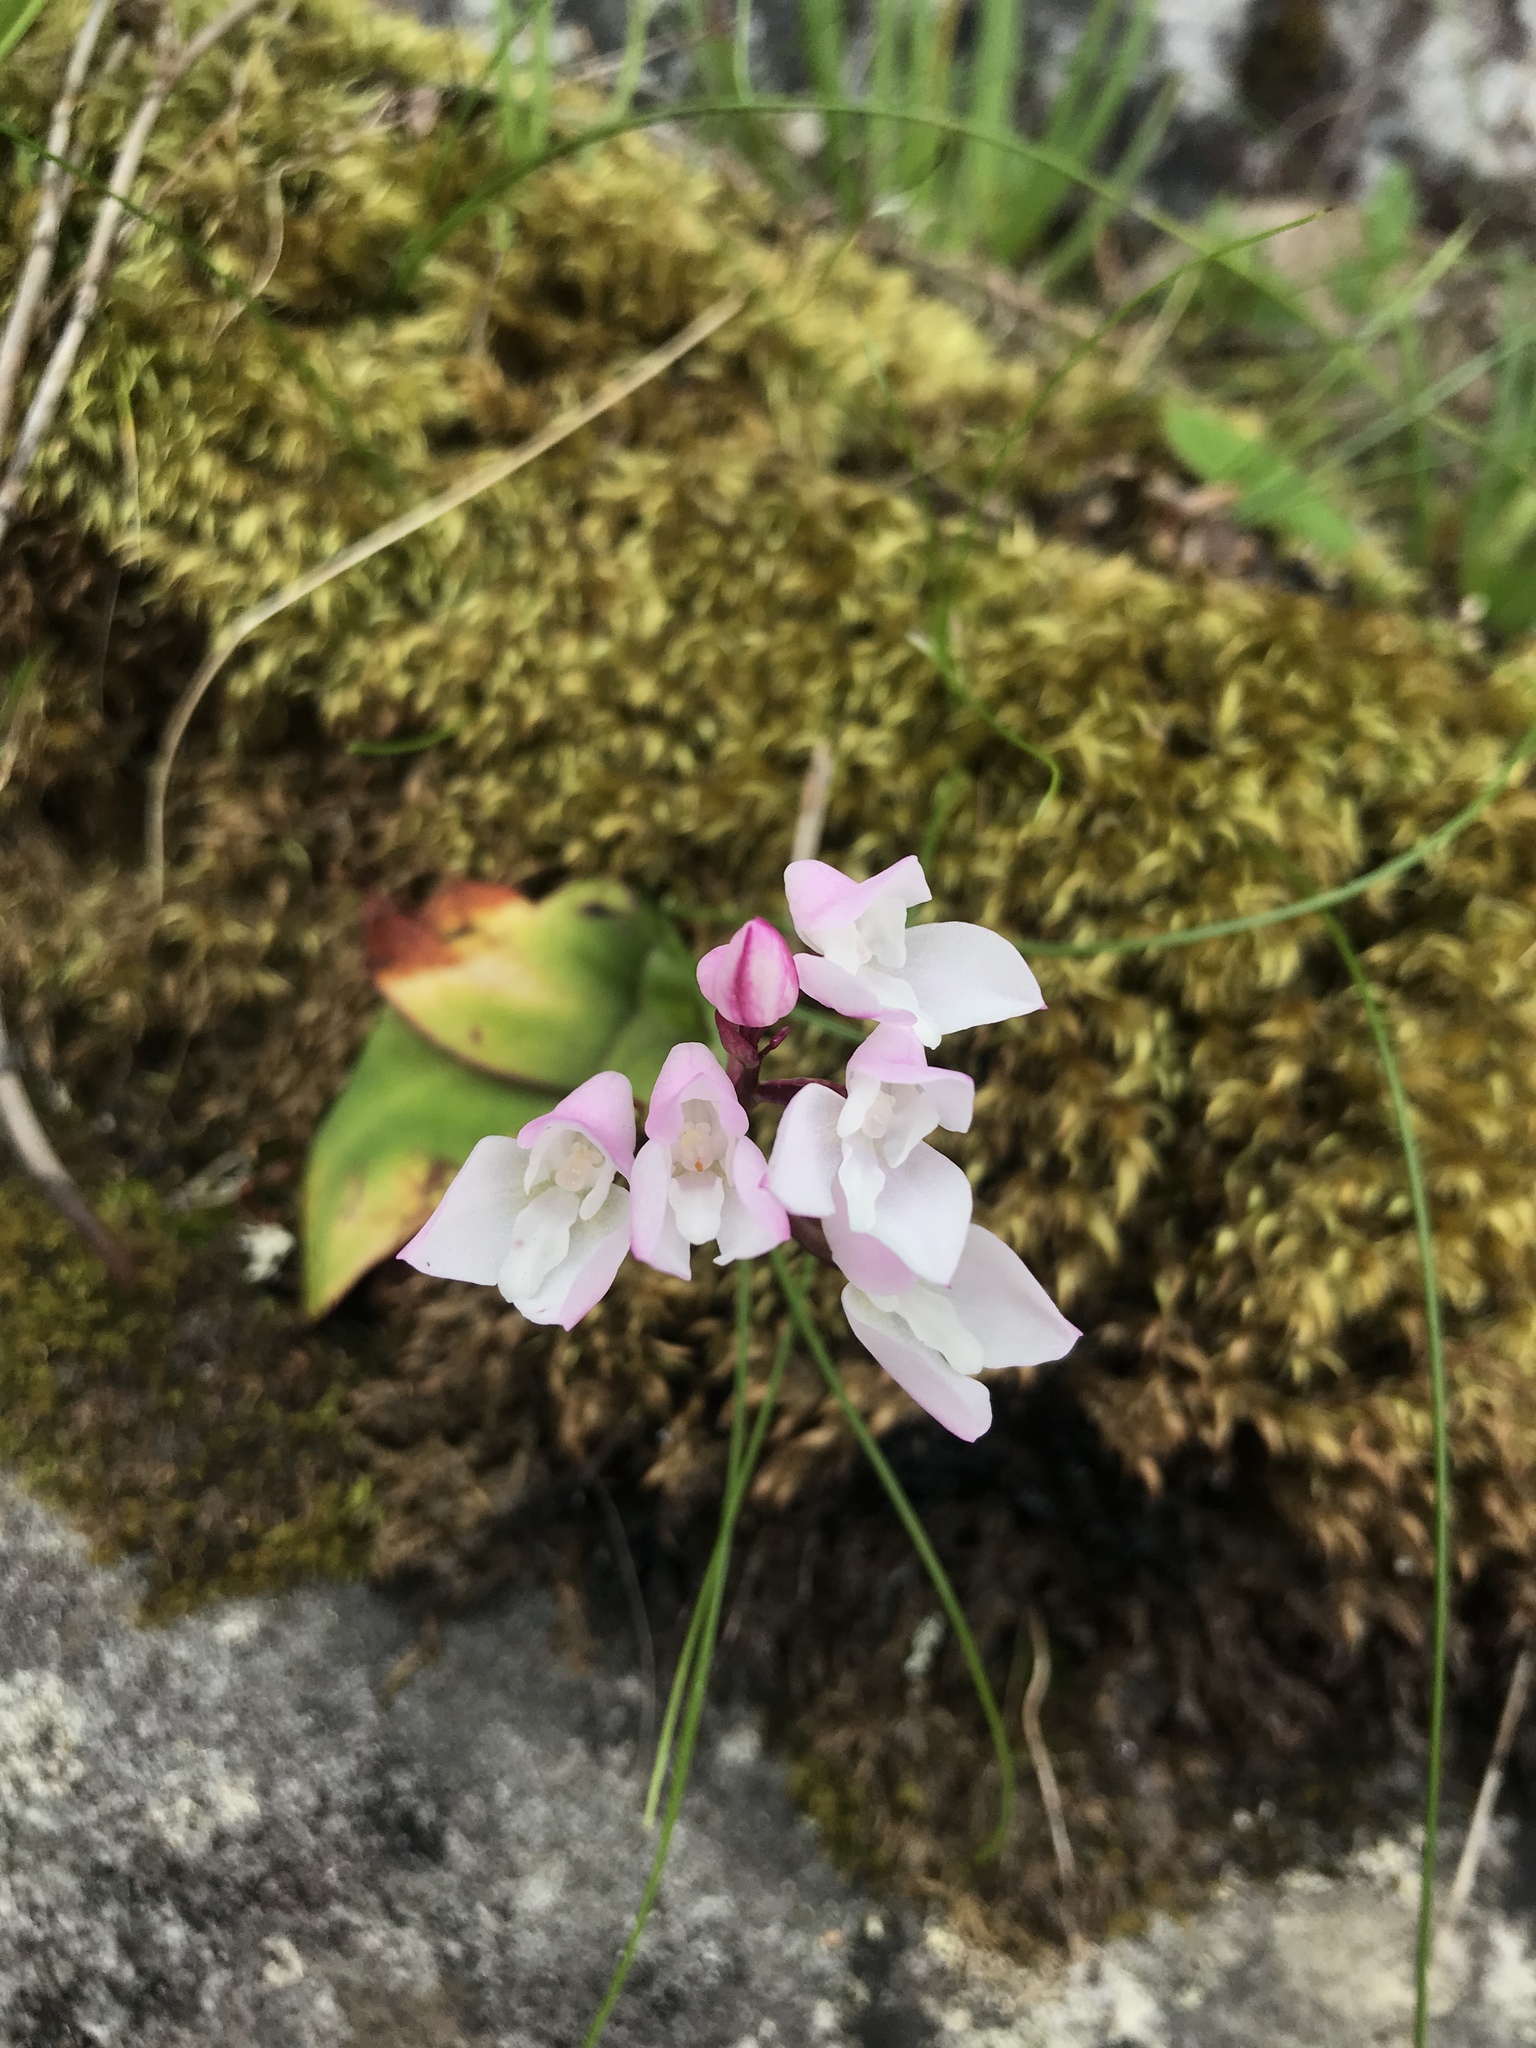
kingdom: Plantae
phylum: Tracheophyta
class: Liliopsida
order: Asparagales
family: Orchidaceae
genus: Disa
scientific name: Disa rosea
